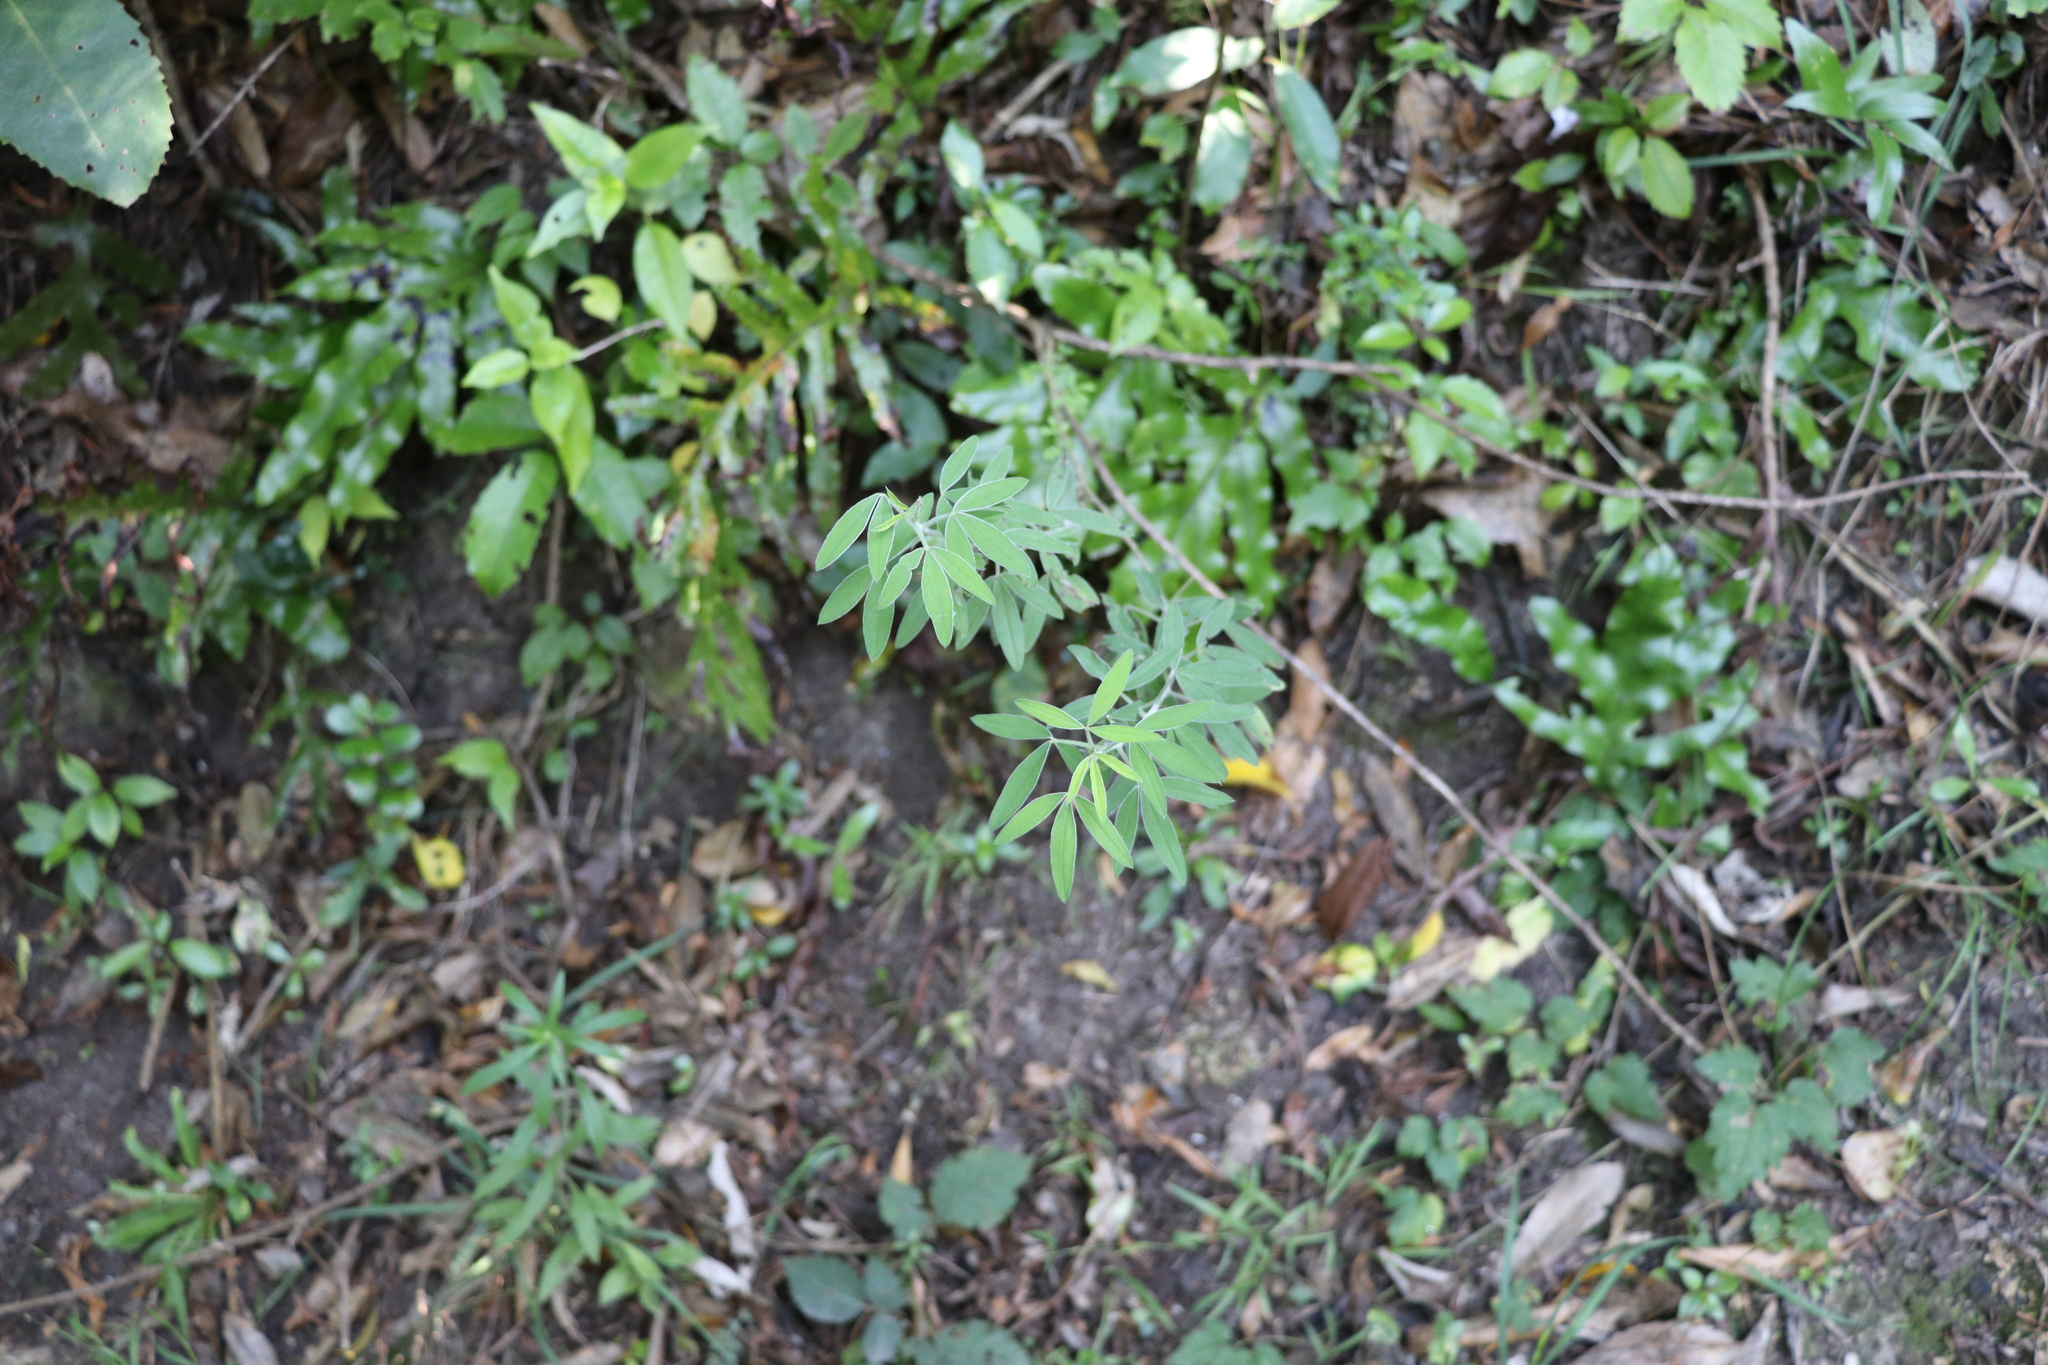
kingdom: Plantae
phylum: Tracheophyta
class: Magnoliopsida
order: Fabales
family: Fabaceae
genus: Chamaecytisus
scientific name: Chamaecytisus prolifer
